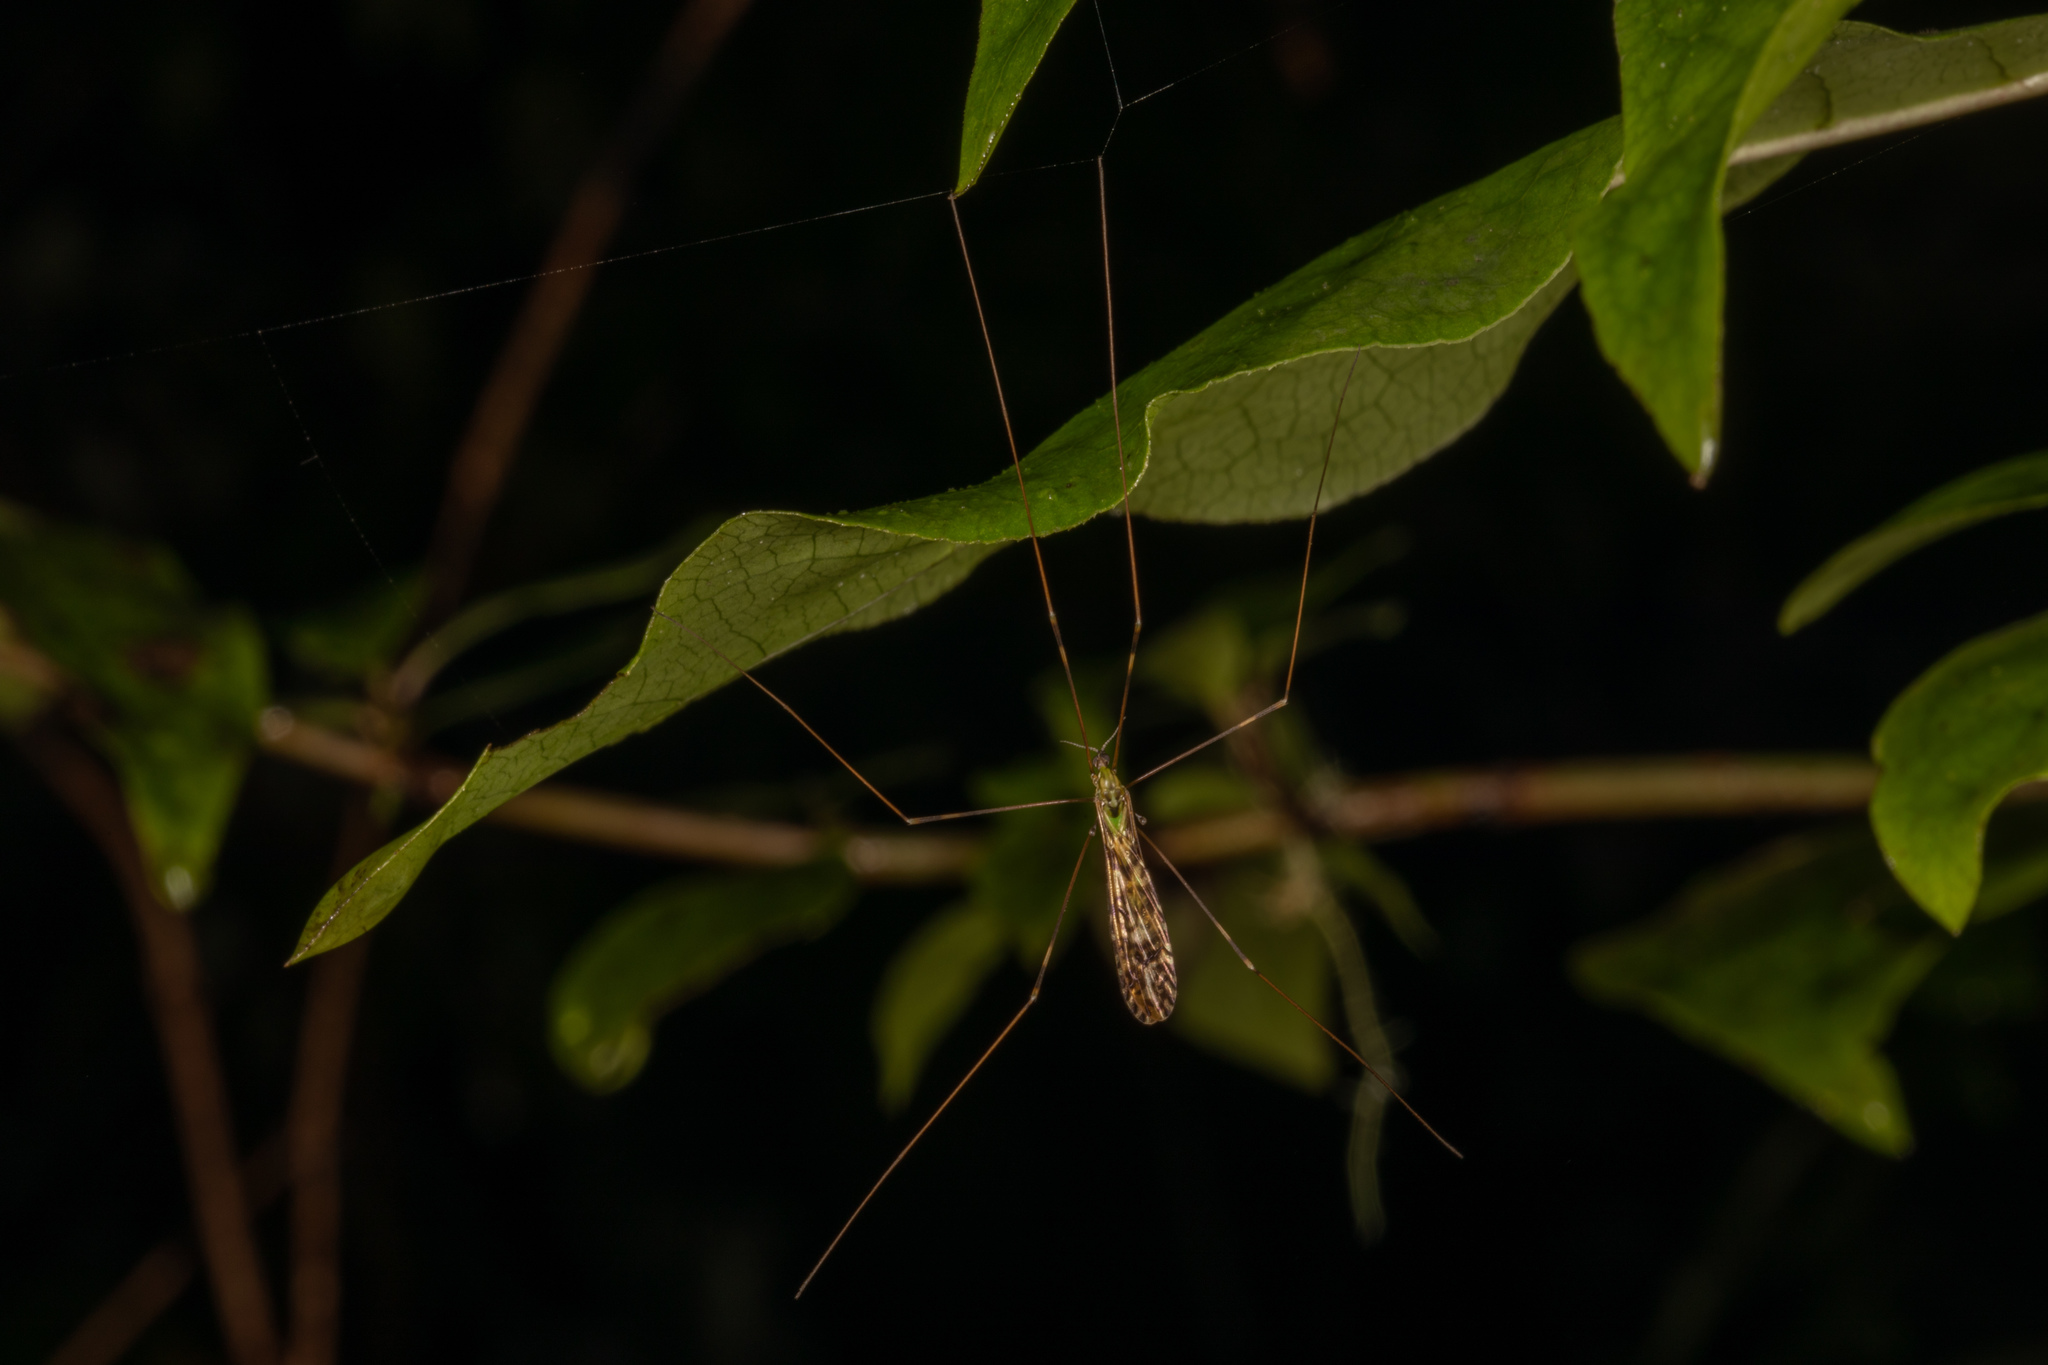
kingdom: Animalia
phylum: Arthropoda
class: Insecta
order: Diptera
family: Limoniidae
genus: Discobola
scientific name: Discobola tessellata
